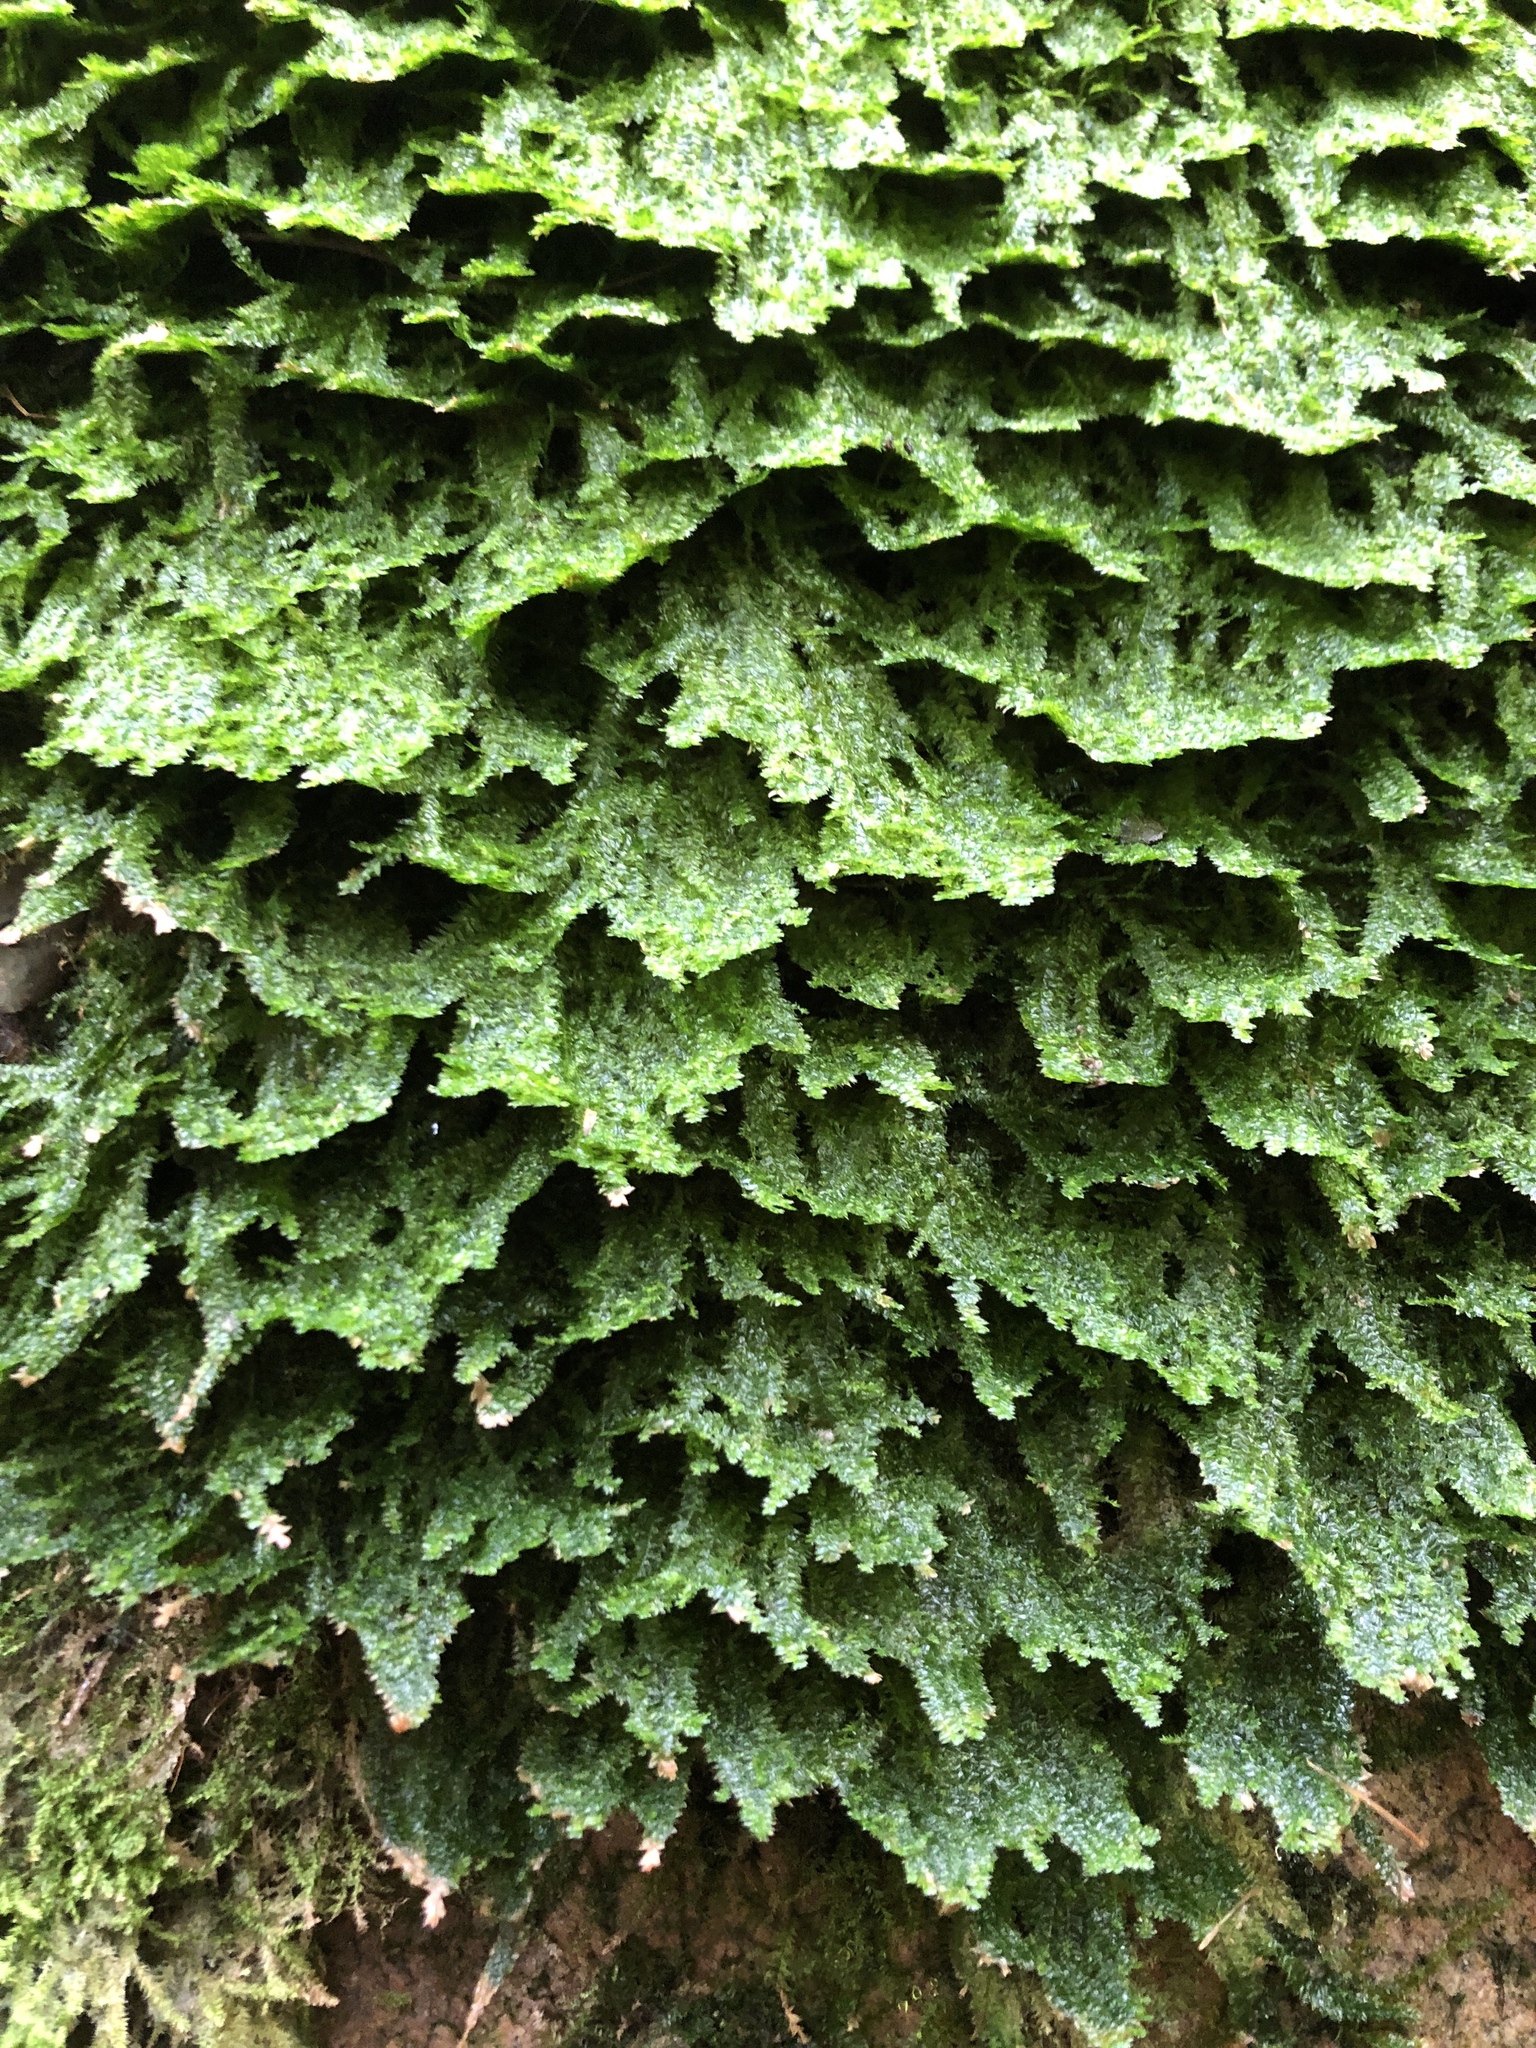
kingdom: Plantae
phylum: Bryophyta
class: Bryopsida
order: Hypnales
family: Neckeraceae
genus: Neckera
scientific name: Neckera pennata
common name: Feathery neckera
